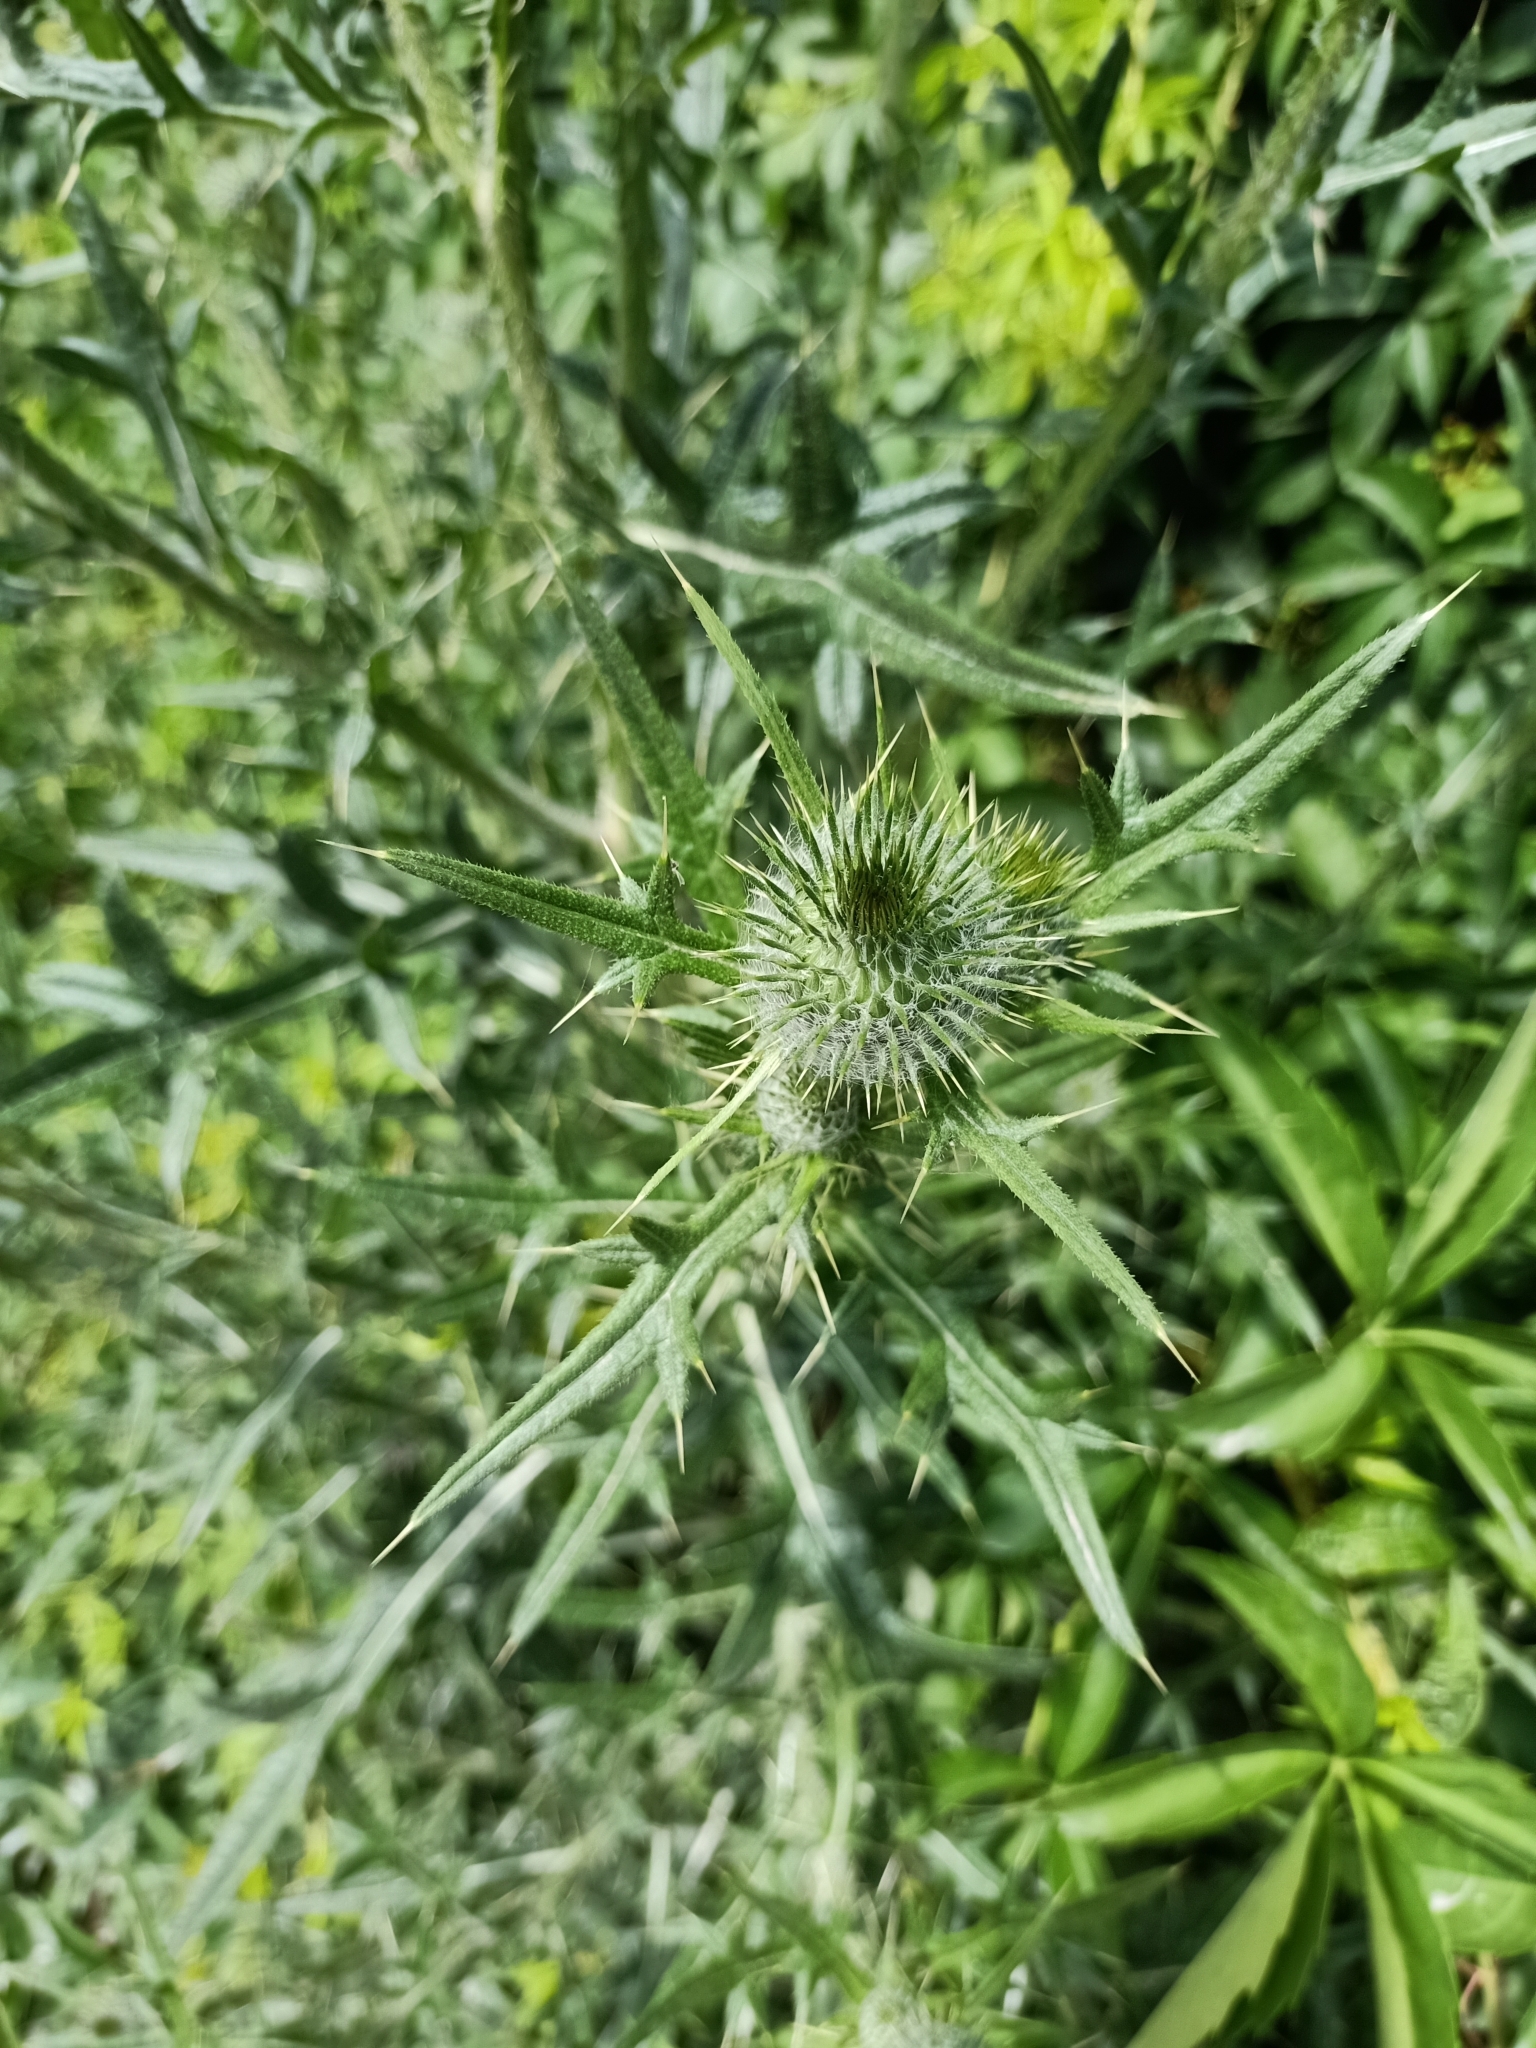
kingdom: Plantae
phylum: Tracheophyta
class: Magnoliopsida
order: Asterales
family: Asteraceae
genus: Cirsium
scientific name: Cirsium vulgare
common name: Bull thistle
